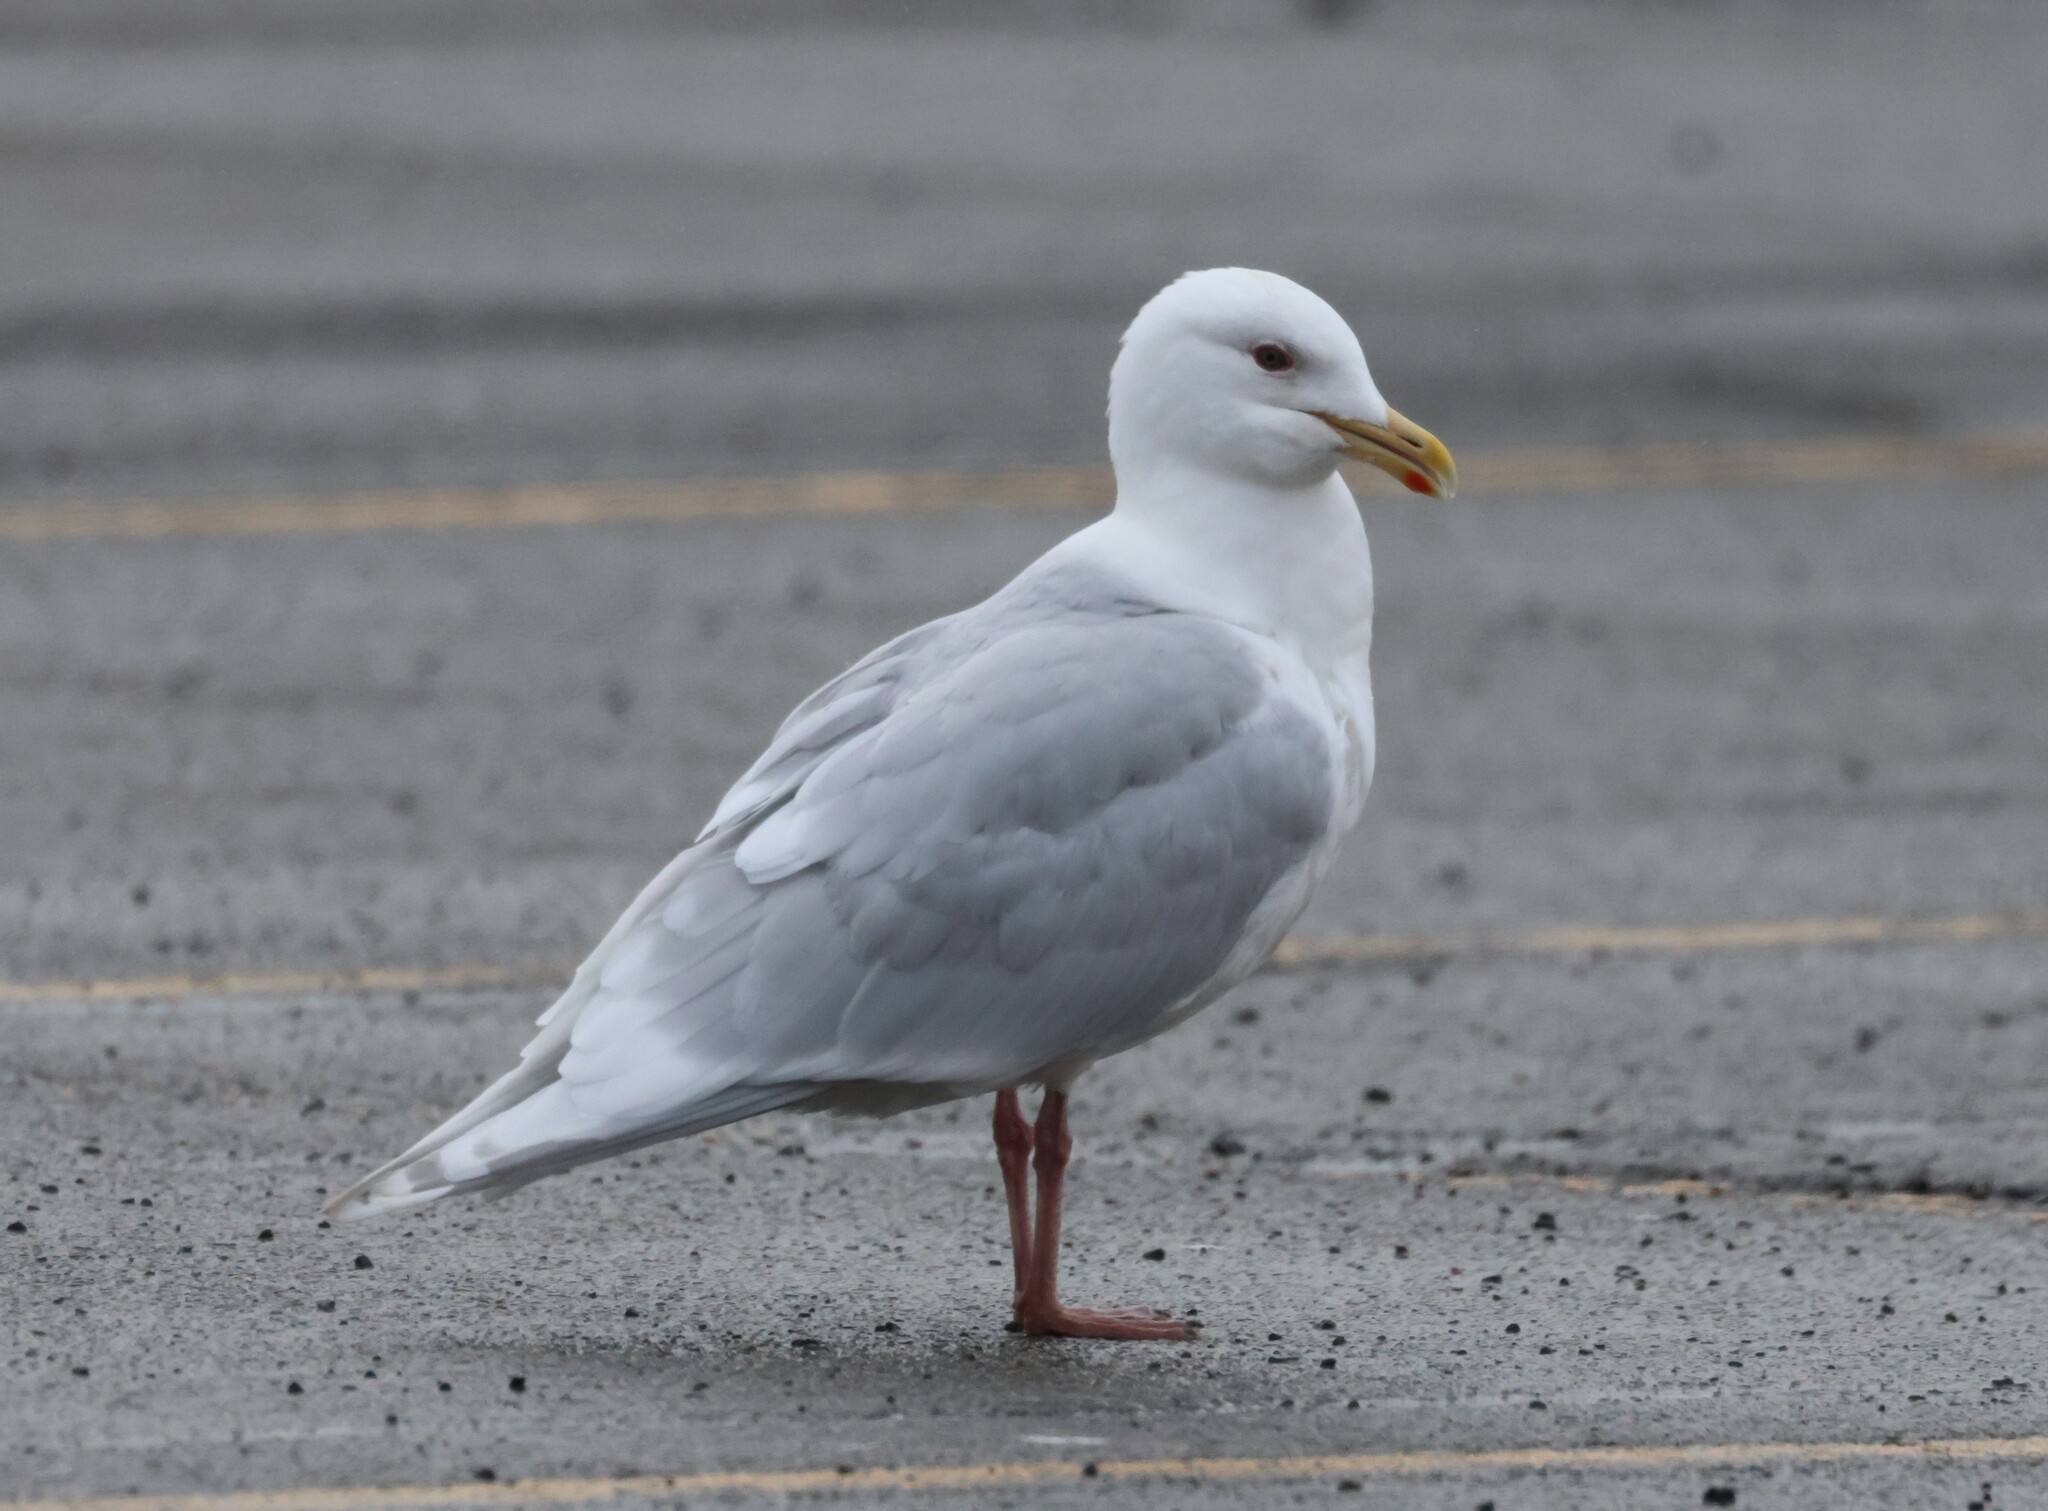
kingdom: Animalia
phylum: Chordata
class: Aves
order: Charadriiformes
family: Laridae
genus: Larus
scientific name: Larus glaucoides
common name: Iceland gull
